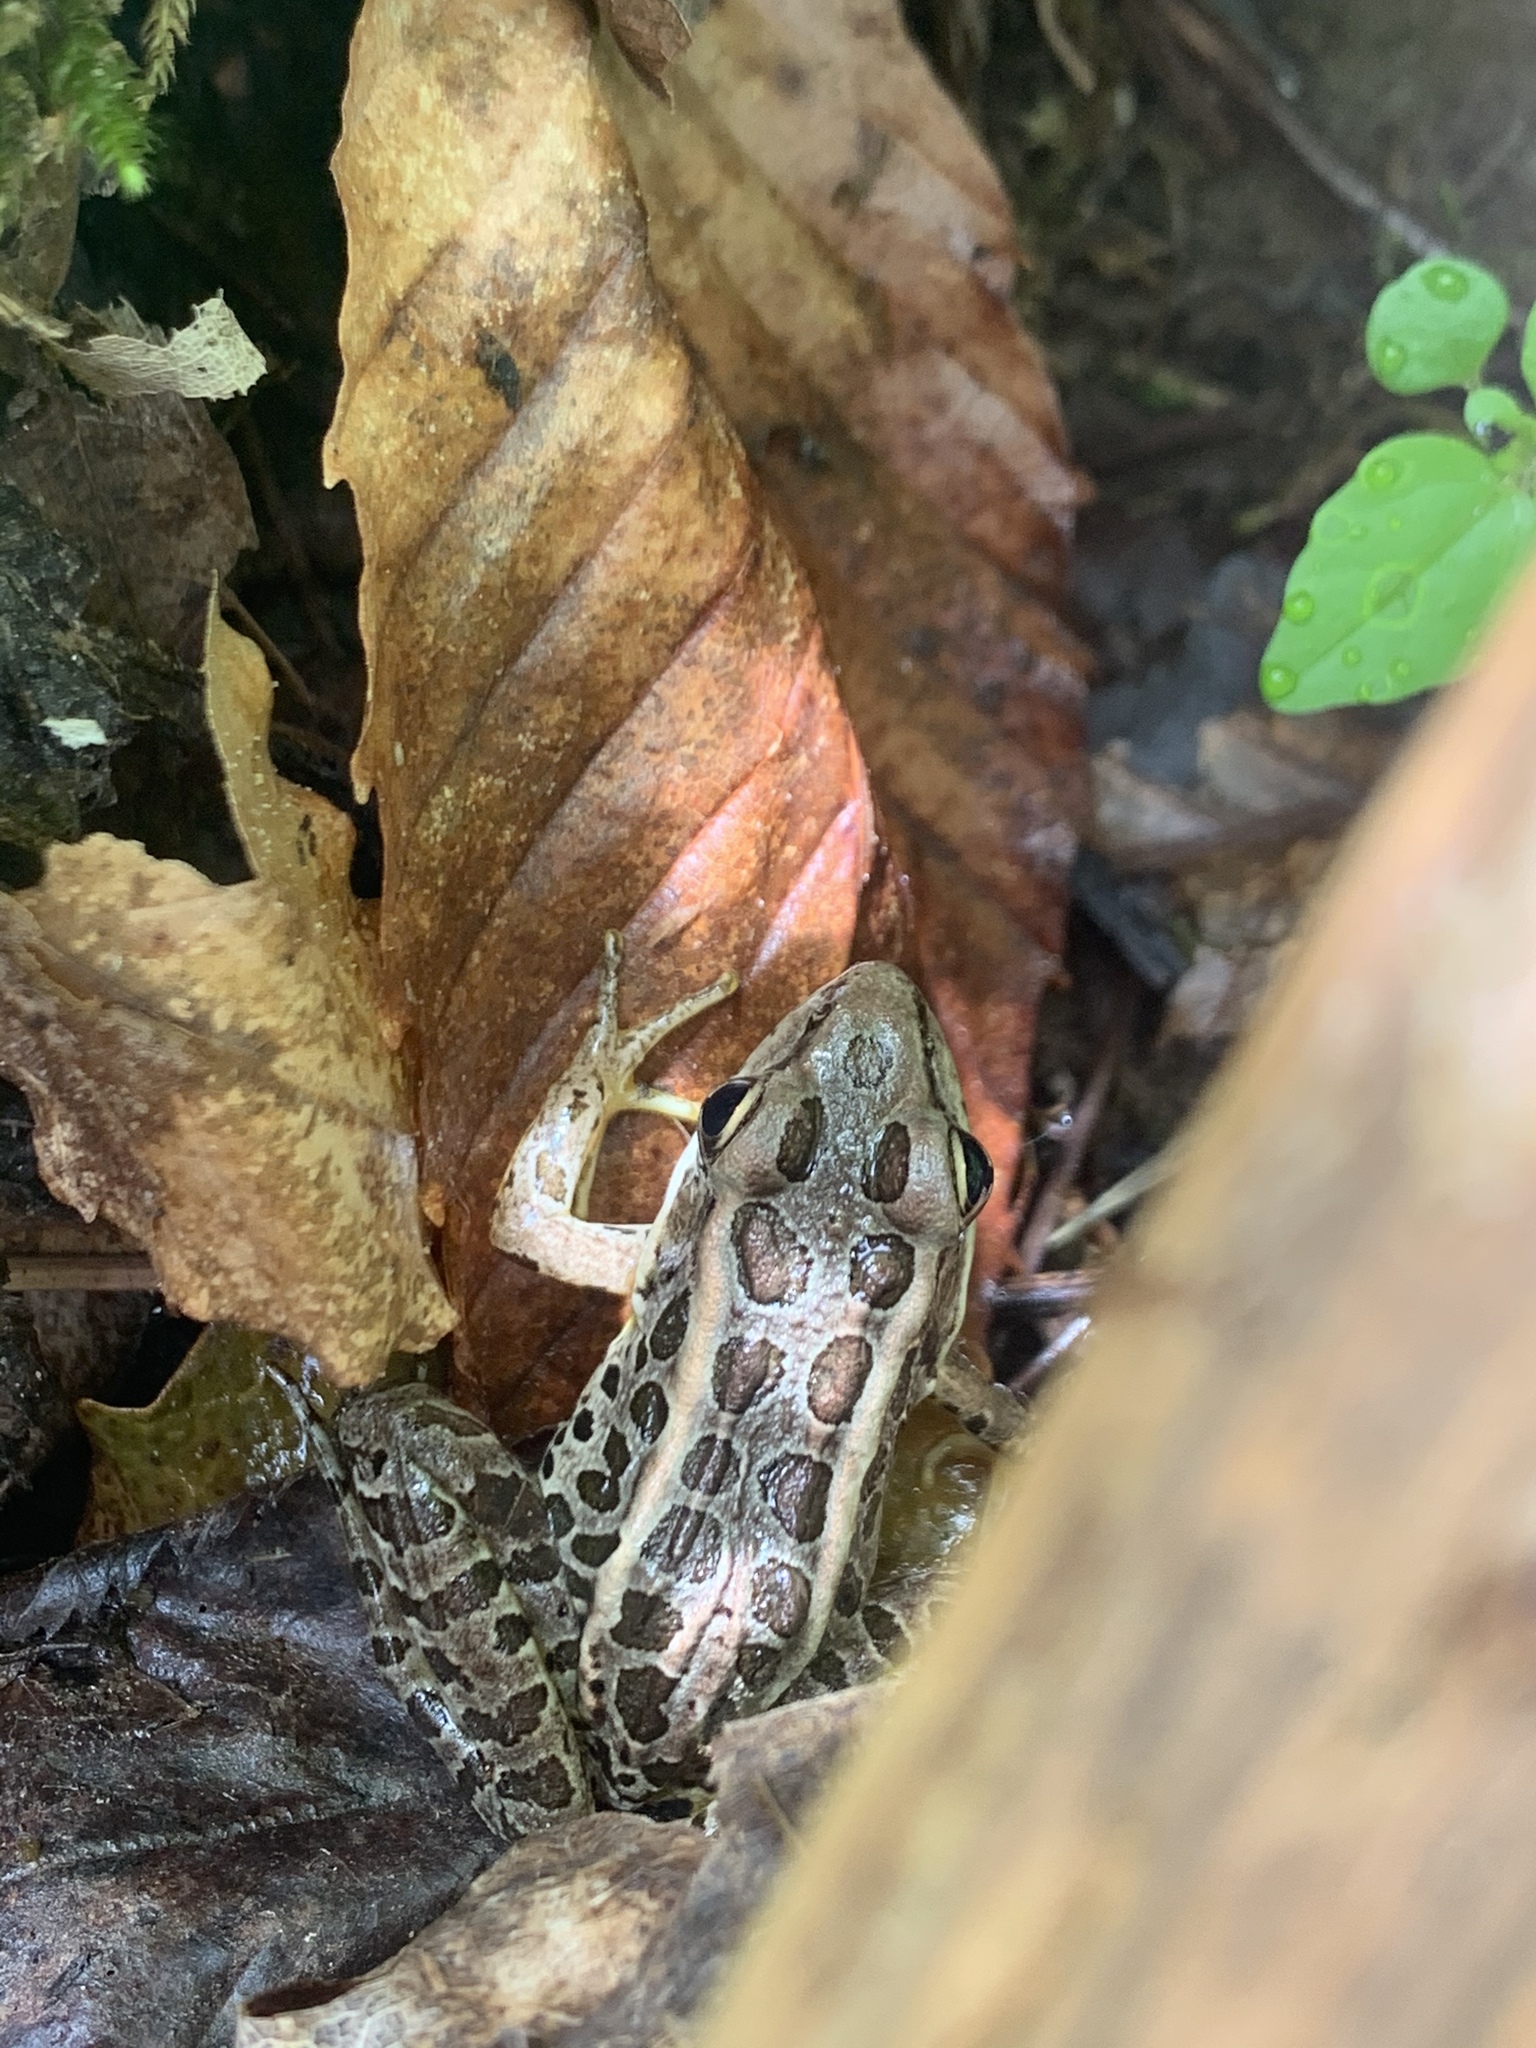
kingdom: Animalia
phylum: Chordata
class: Amphibia
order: Anura
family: Ranidae
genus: Lithobates
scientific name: Lithobates palustris
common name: Pickerel frog
